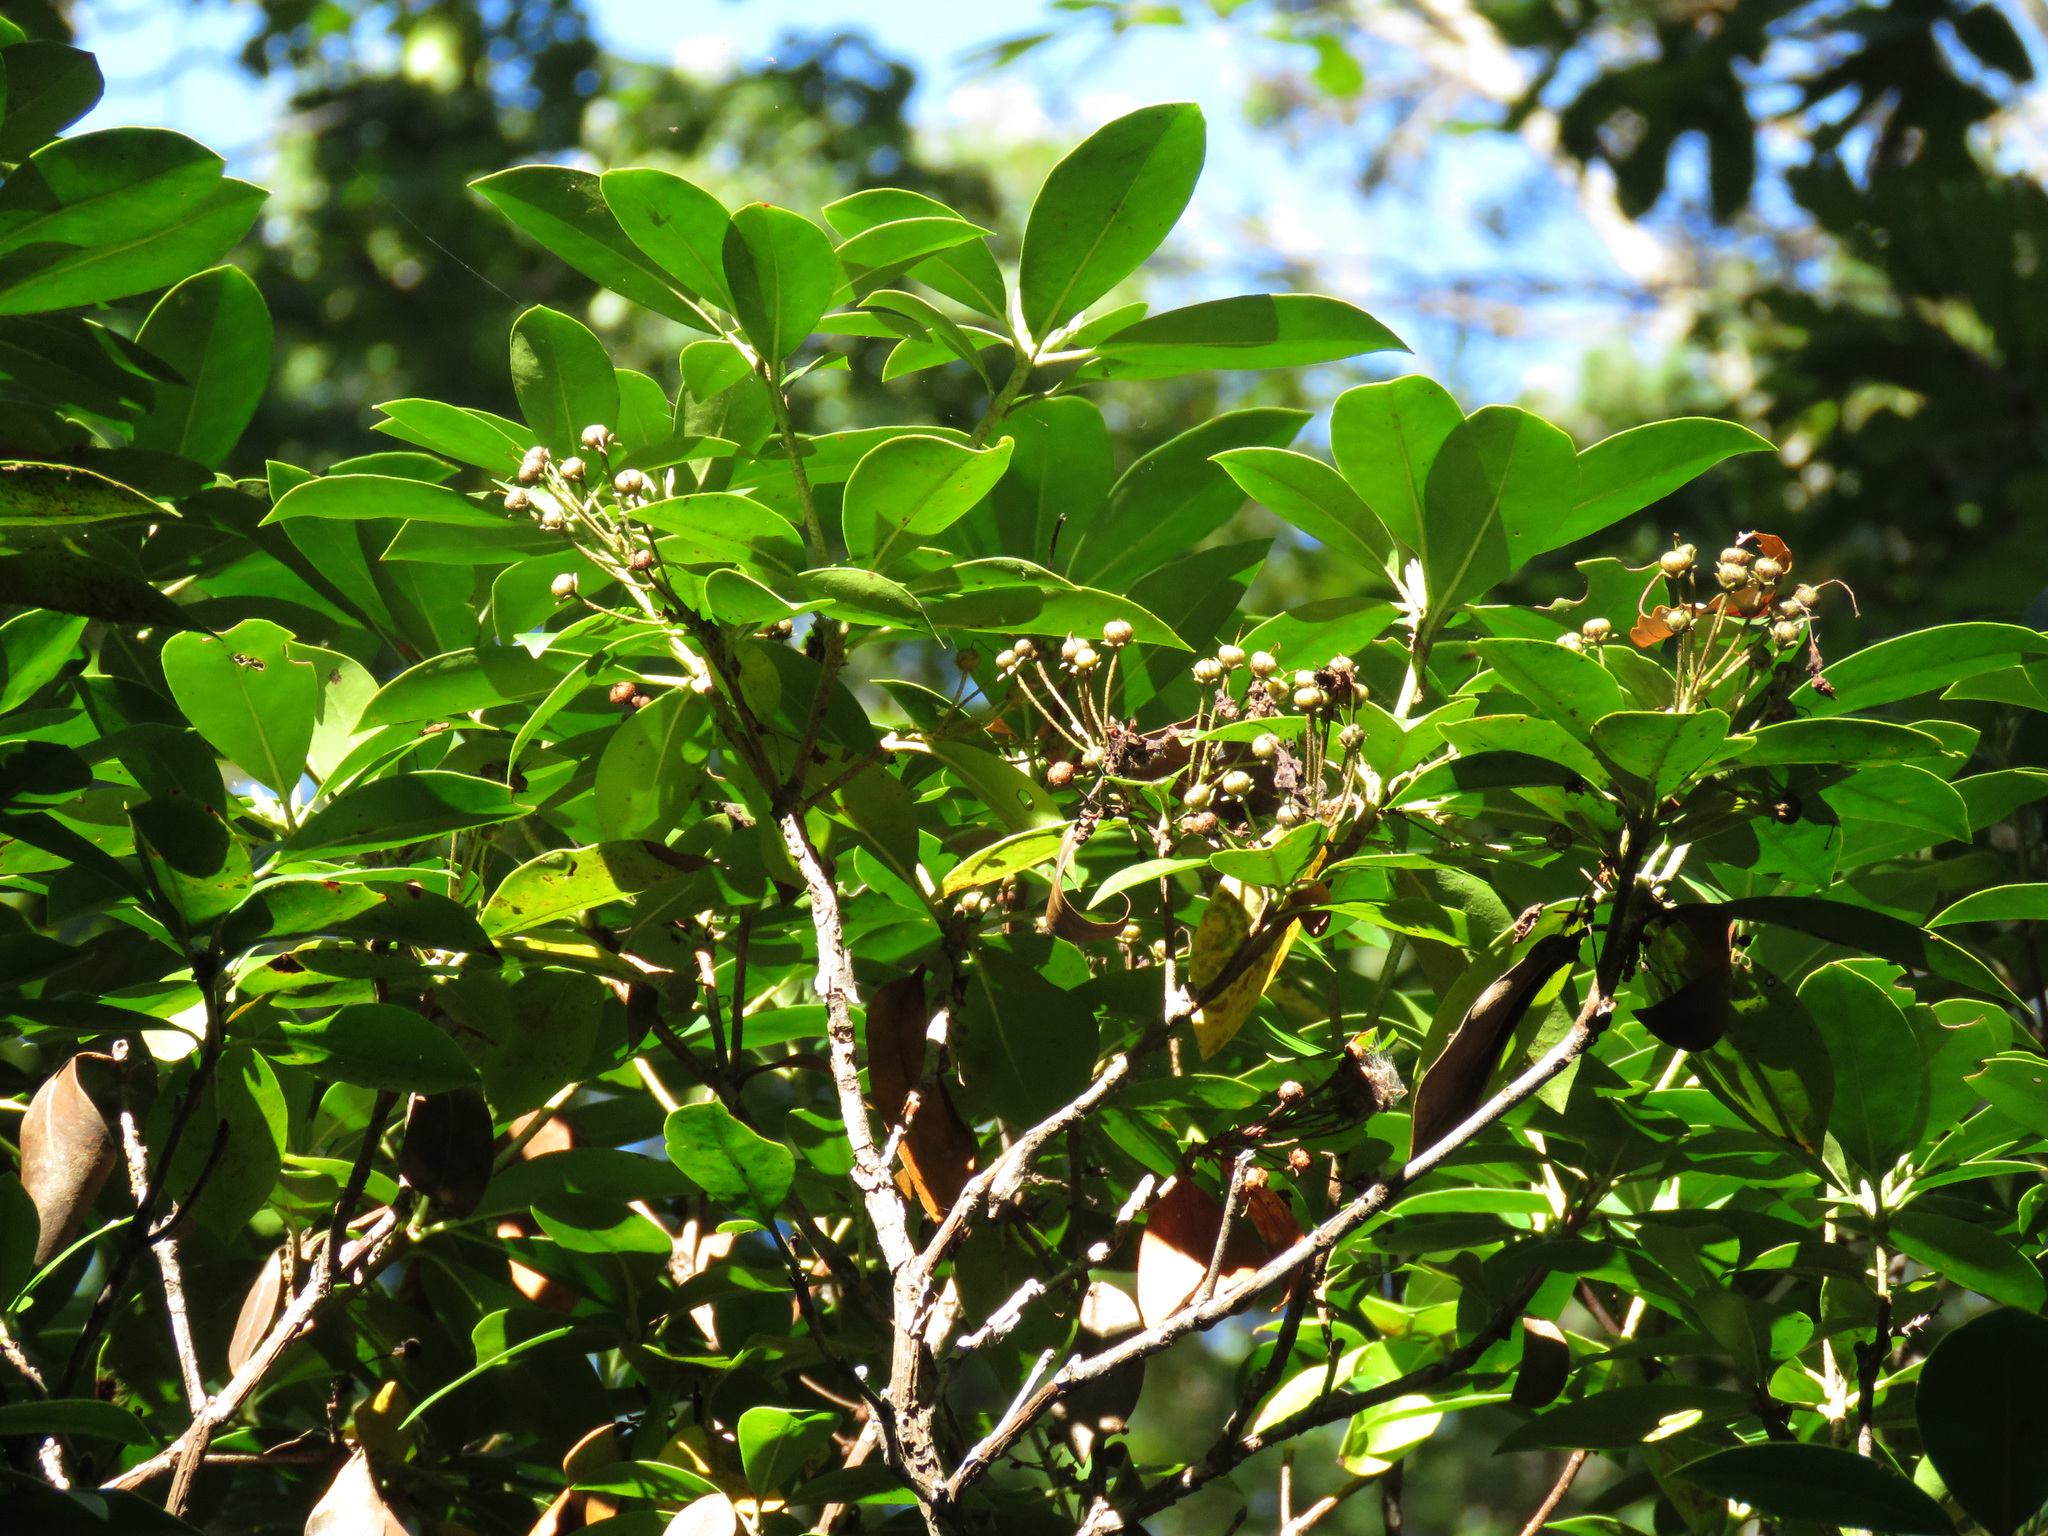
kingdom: Plantae
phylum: Tracheophyta
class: Magnoliopsida
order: Ericales
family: Ericaceae
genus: Kalmia
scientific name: Kalmia latifolia
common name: Mountain-laurel
